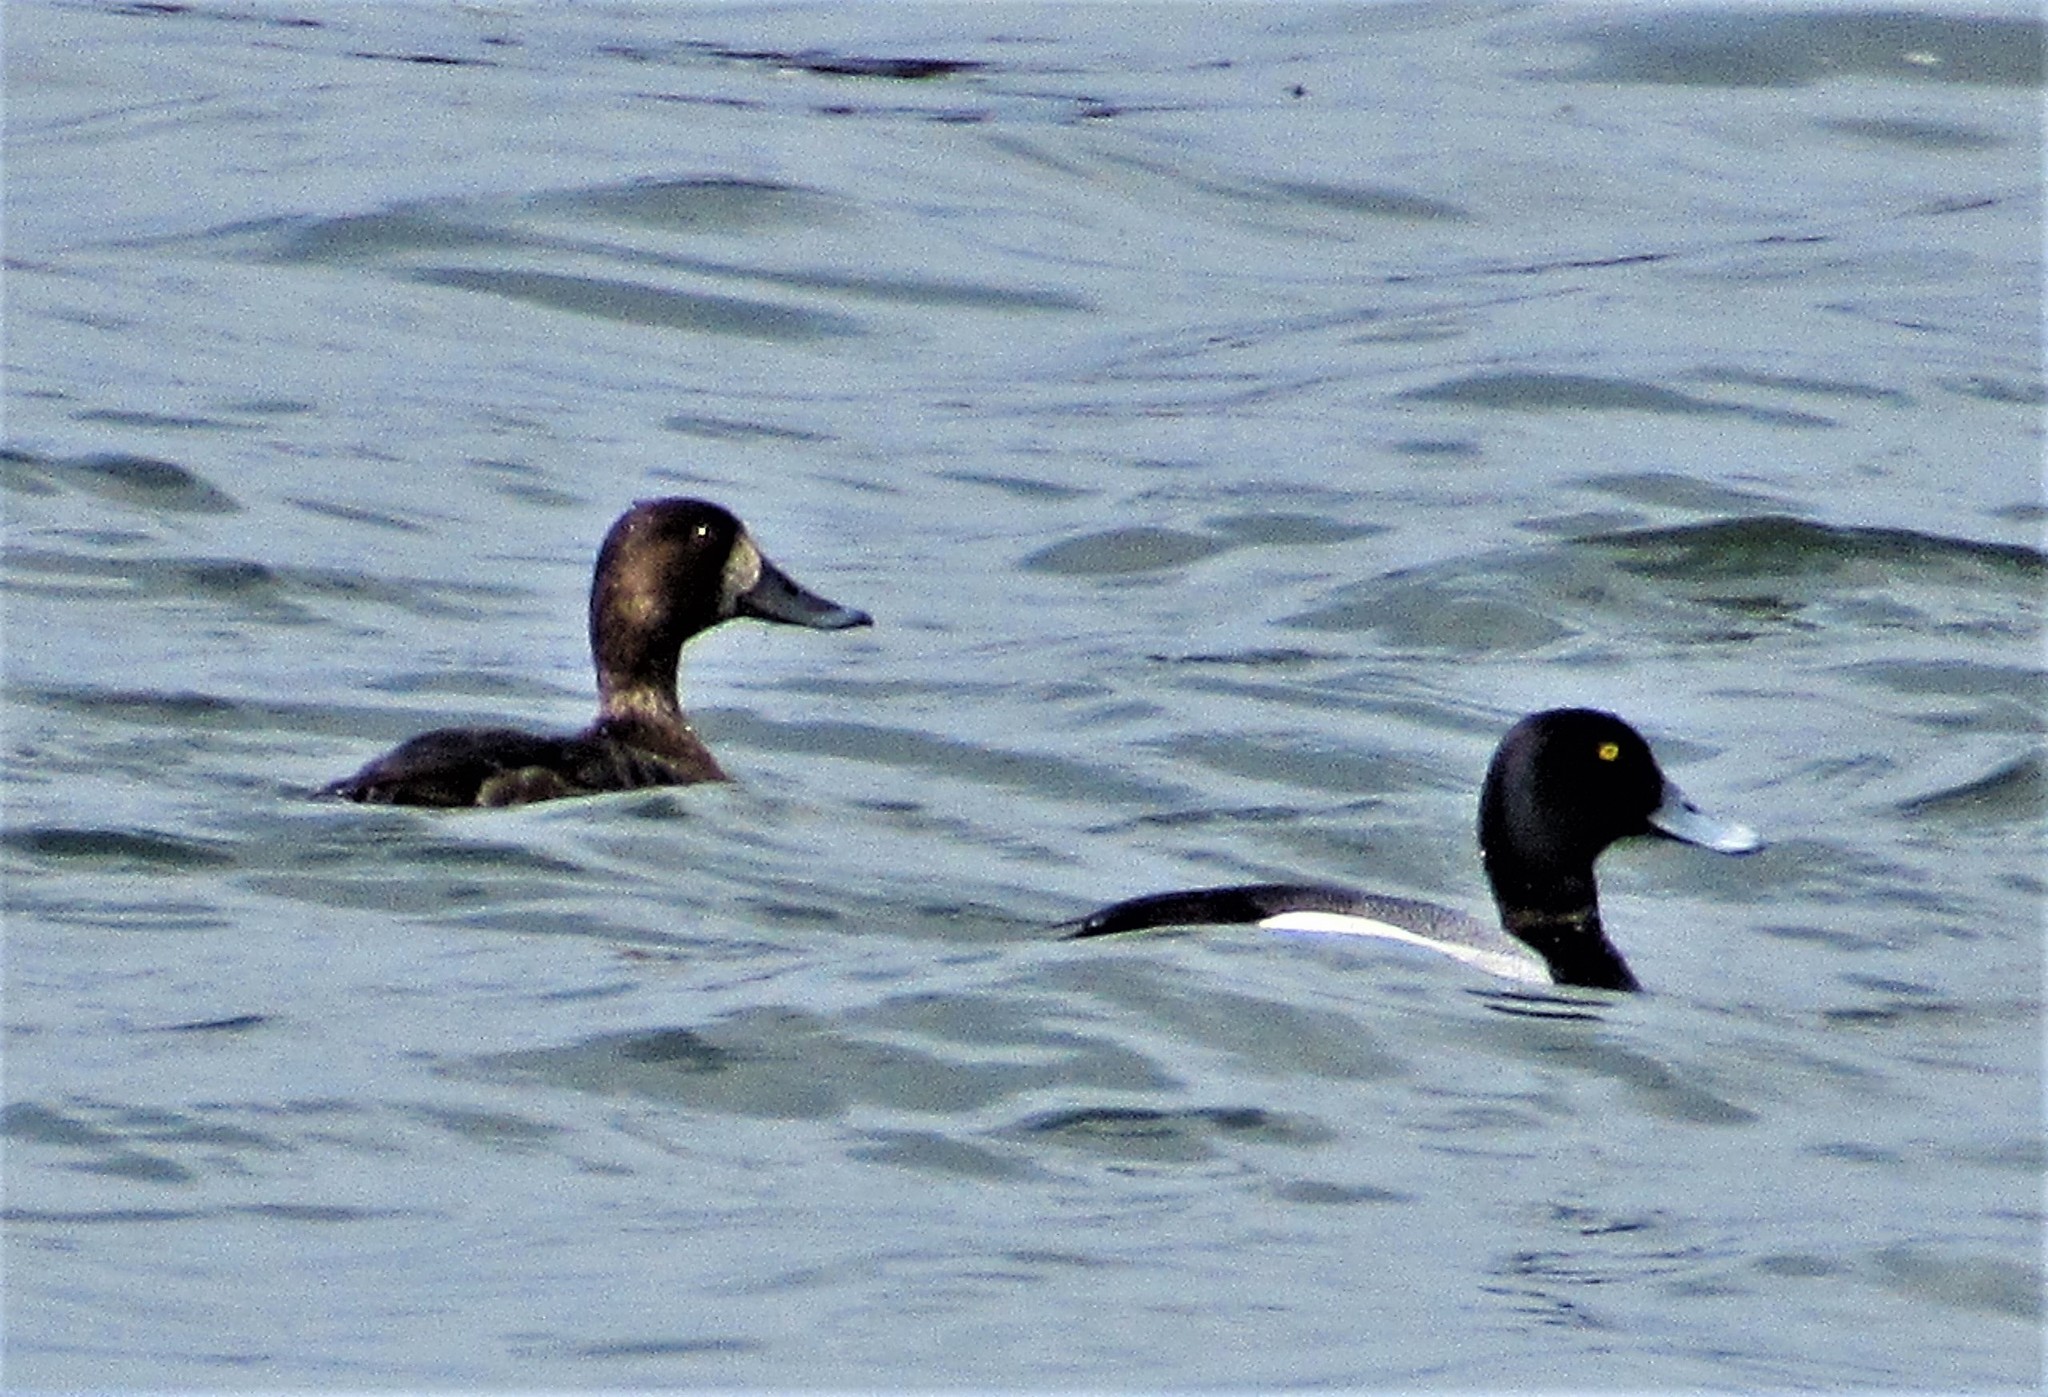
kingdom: Animalia
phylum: Chordata
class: Aves
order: Anseriformes
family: Anatidae
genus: Aythya
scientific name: Aythya marila
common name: Greater scaup
